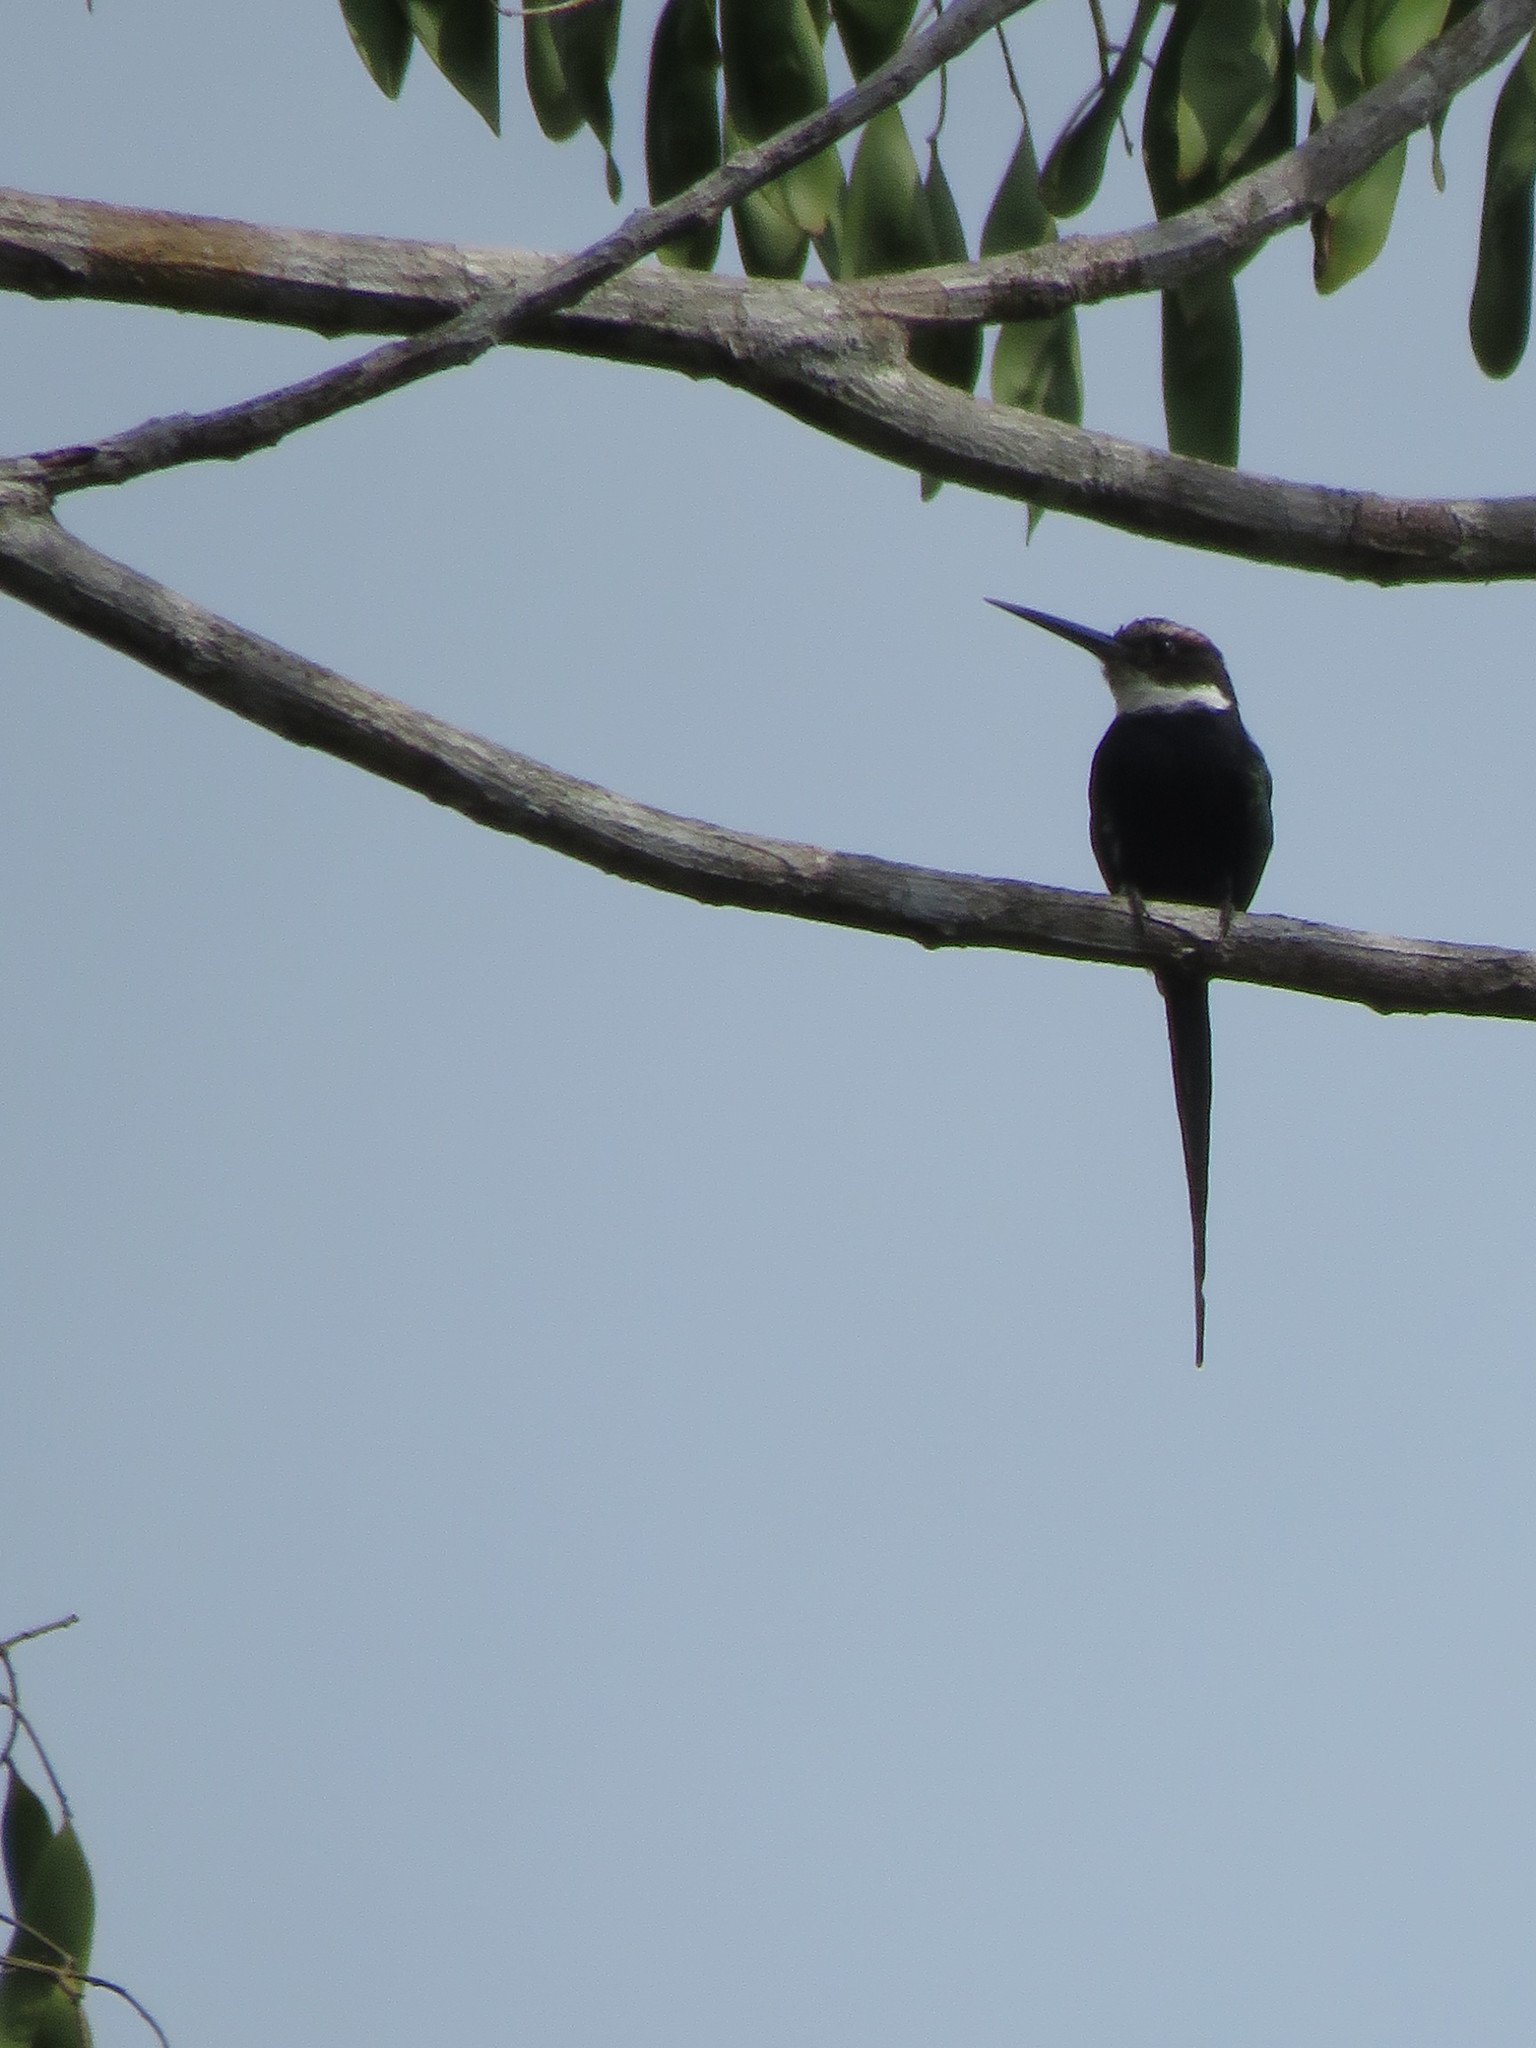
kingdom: Animalia
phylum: Chordata
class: Aves
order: Piciformes
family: Galbulidae
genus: Galbula
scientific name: Galbula dea
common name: Paradise jacamar
